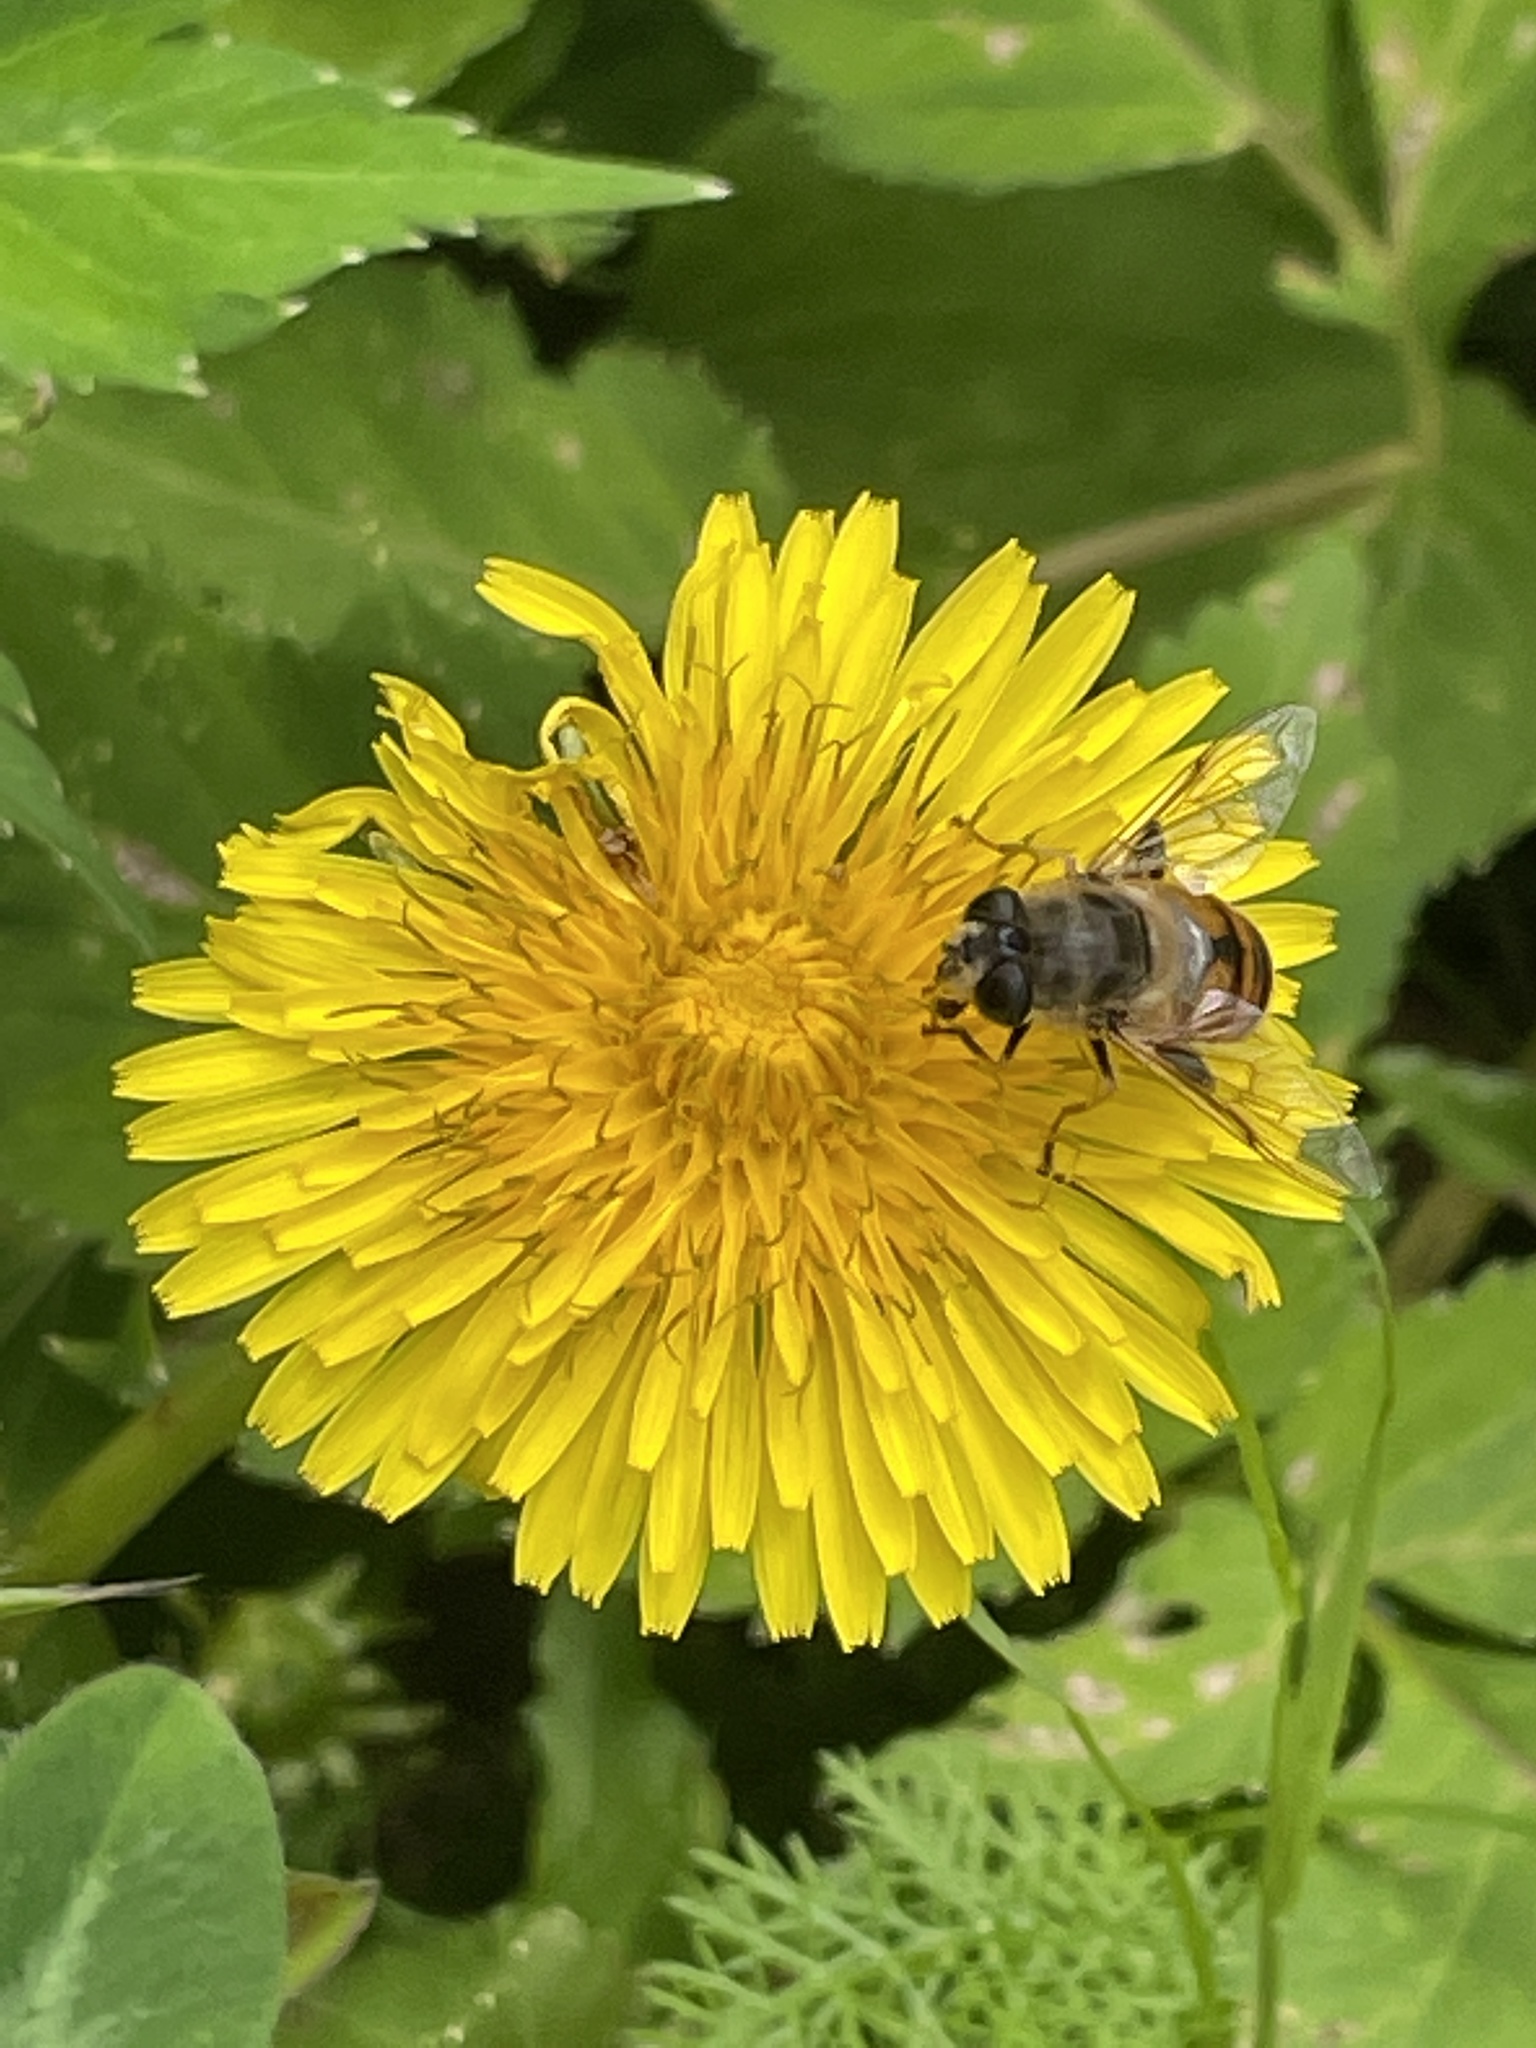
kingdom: Animalia
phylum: Arthropoda
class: Insecta
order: Diptera
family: Syrphidae
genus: Eristalis
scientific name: Eristalis tenax
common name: Drone fly
